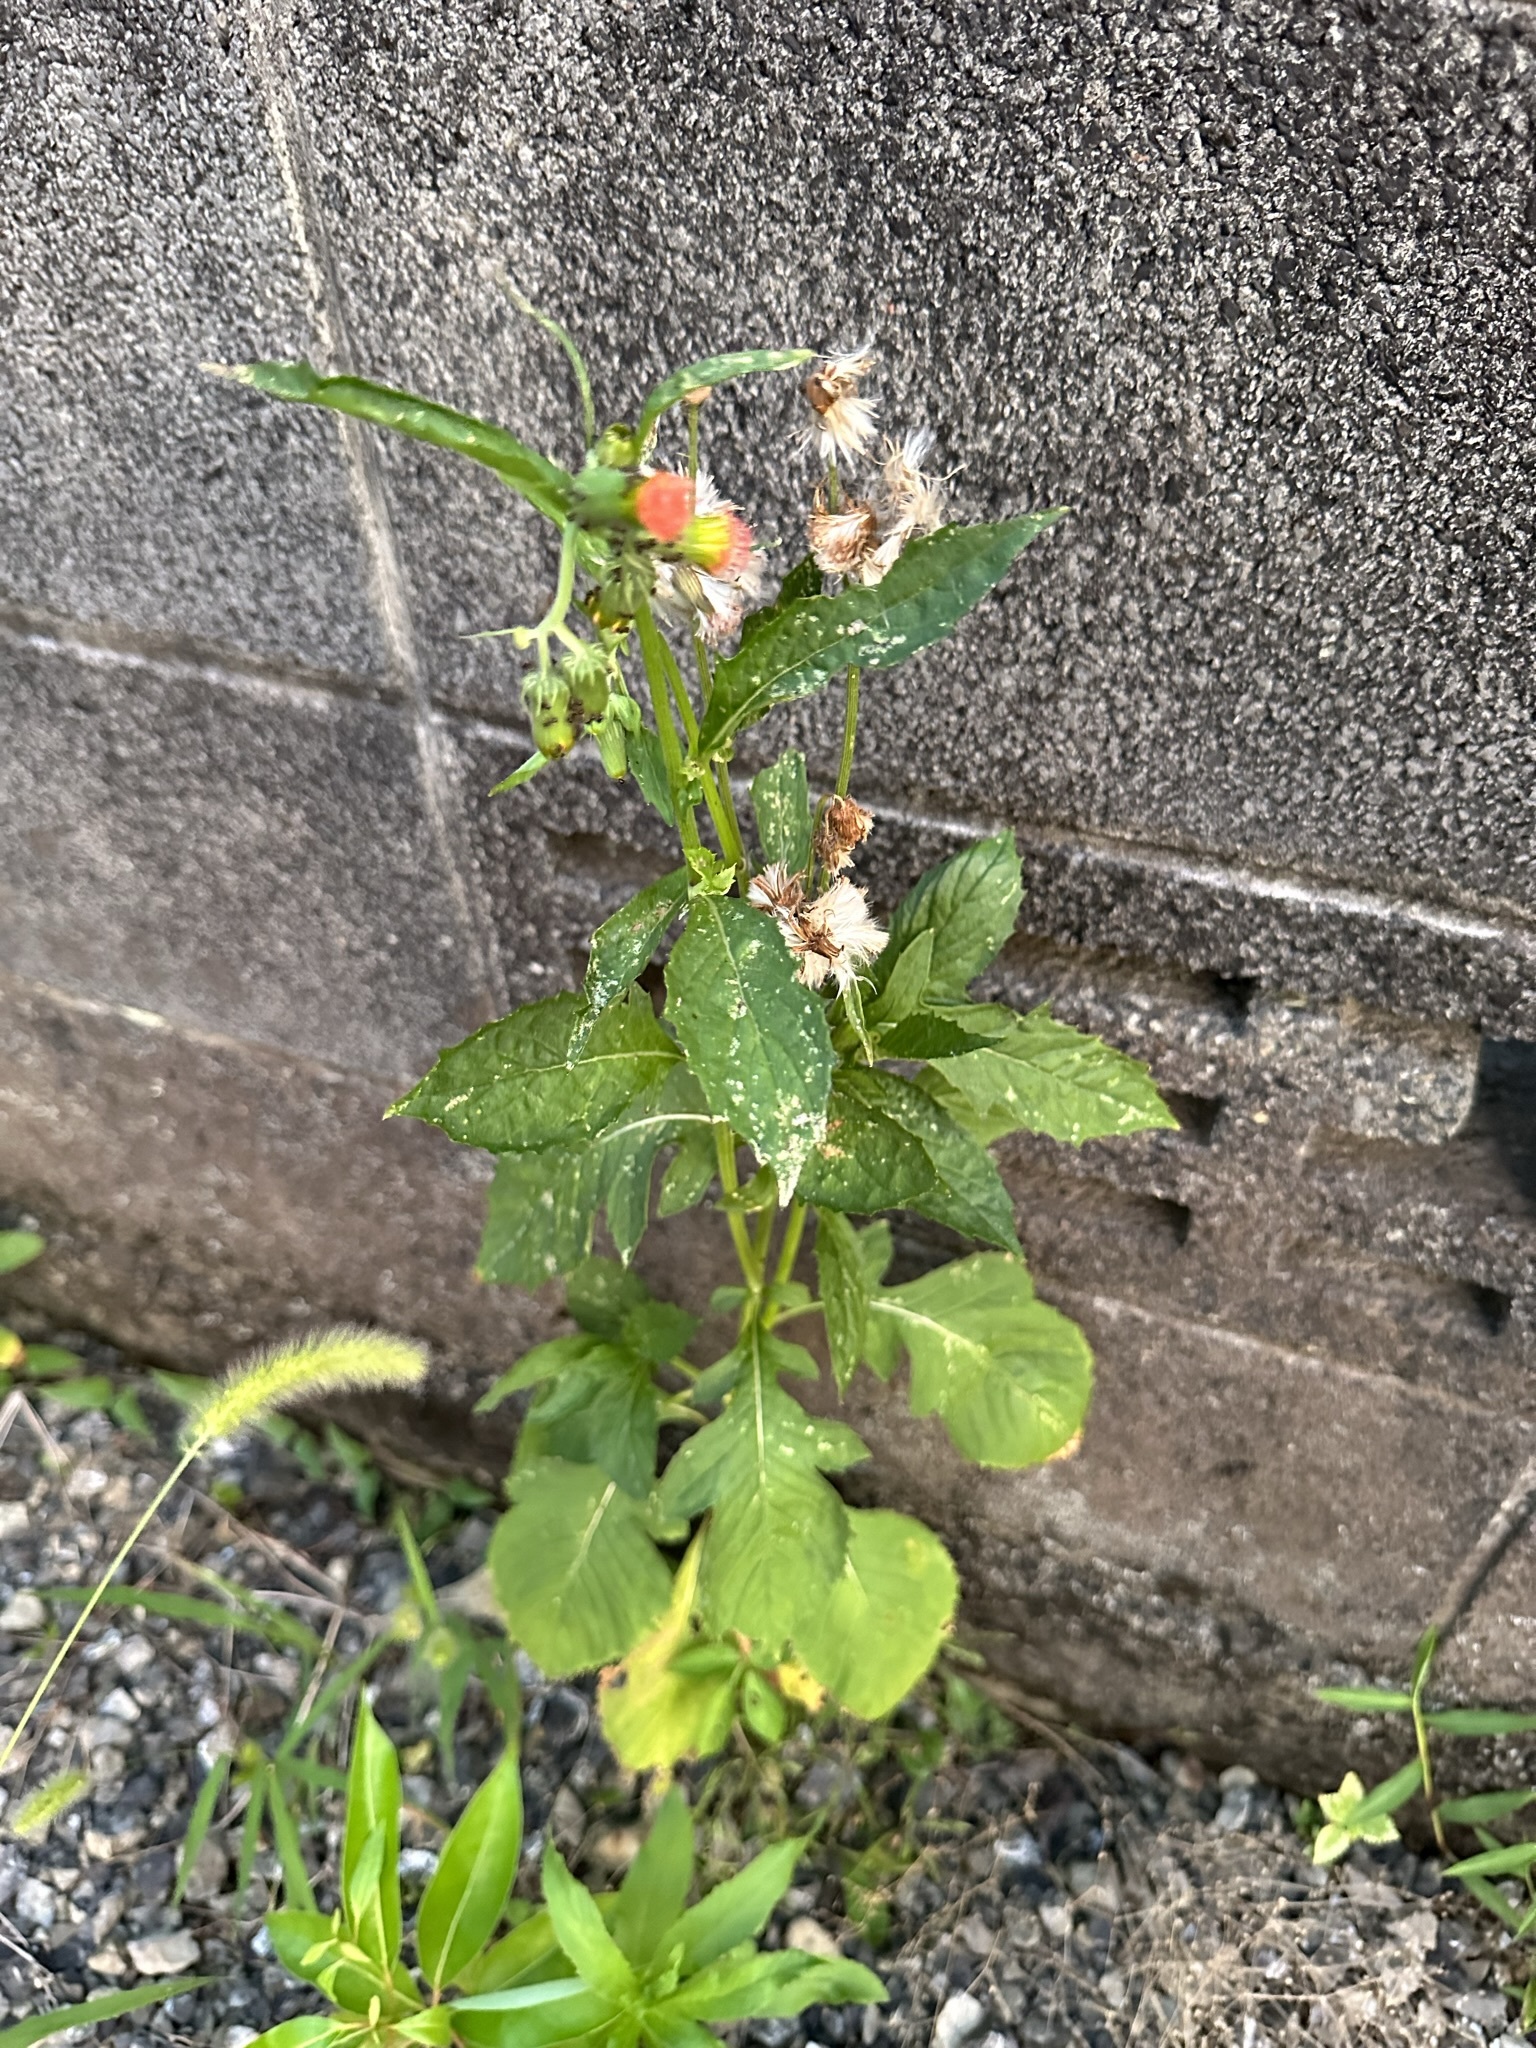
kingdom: Plantae
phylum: Tracheophyta
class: Magnoliopsida
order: Asterales
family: Asteraceae
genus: Crassocephalum
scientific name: Crassocephalum crepidioides
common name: Redflower ragleaf
